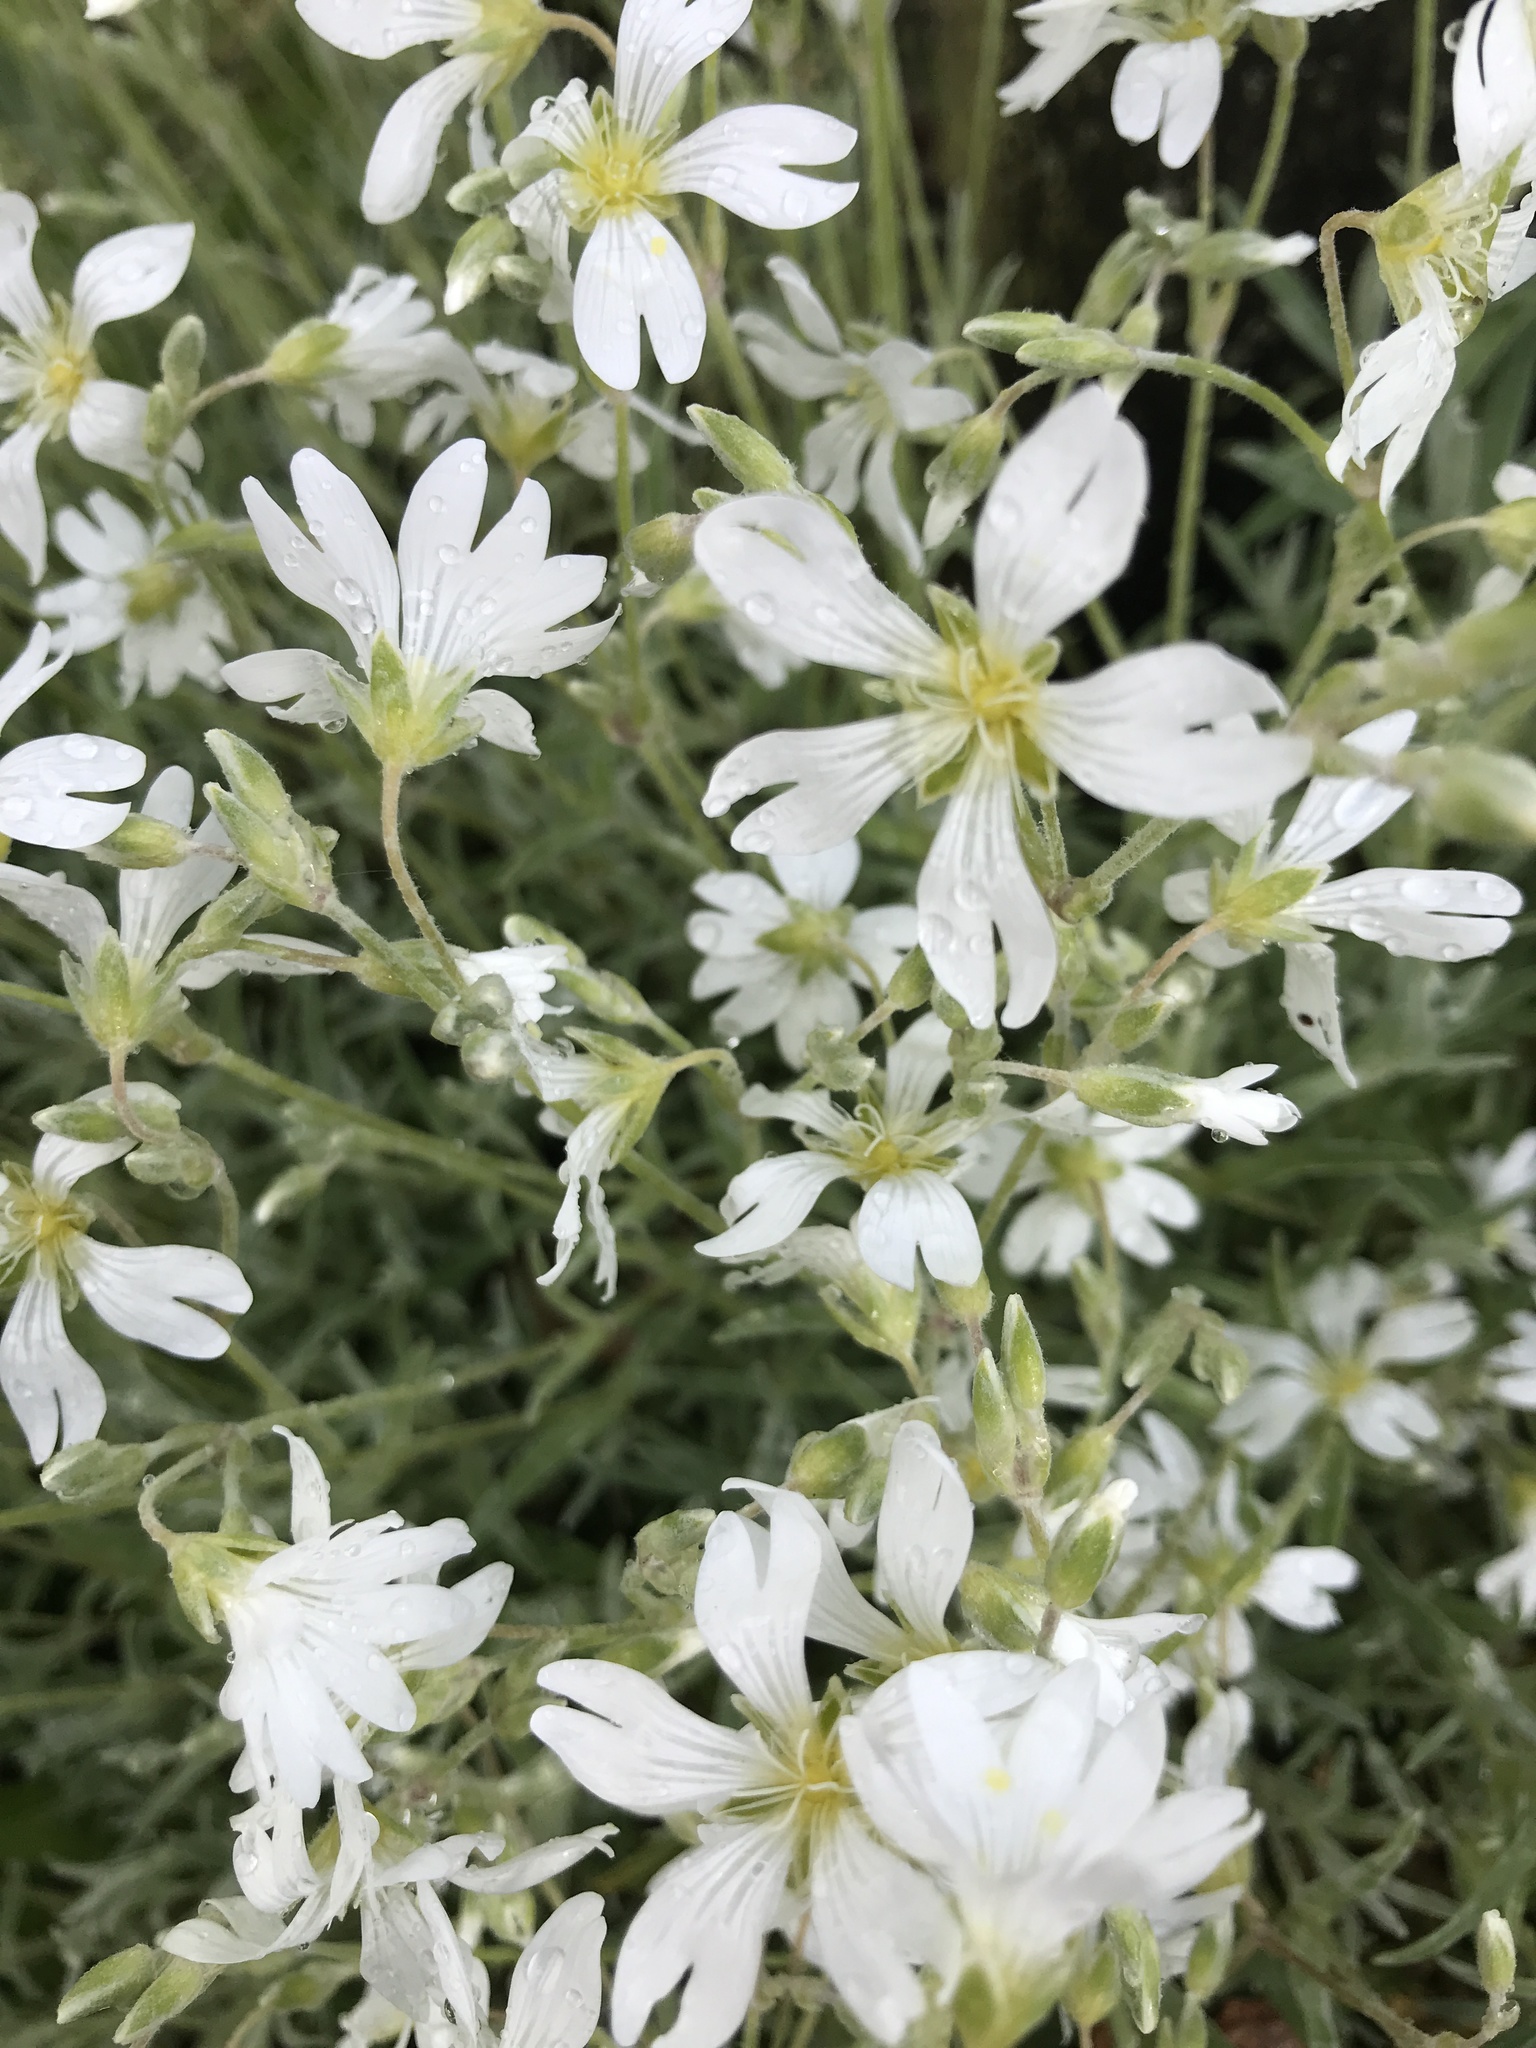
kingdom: Plantae
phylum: Tracheophyta
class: Magnoliopsida
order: Caryophyllales
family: Caryophyllaceae
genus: Cerastium
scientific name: Cerastium tomentosum
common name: Snow-in-summer
